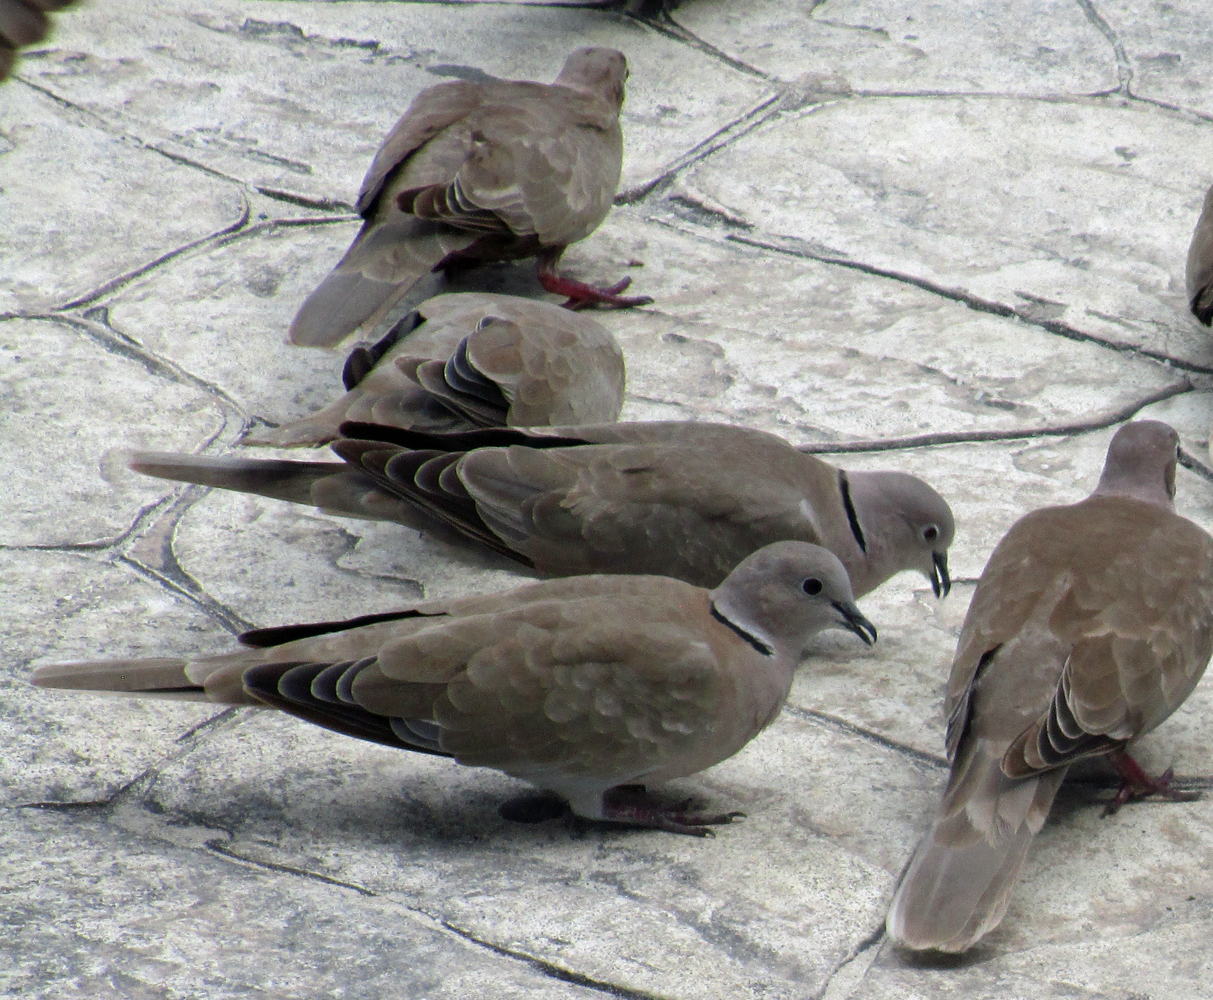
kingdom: Animalia
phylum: Chordata
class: Aves
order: Columbiformes
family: Columbidae
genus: Streptopelia
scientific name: Streptopelia decaocto
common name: Eurasian collared dove
